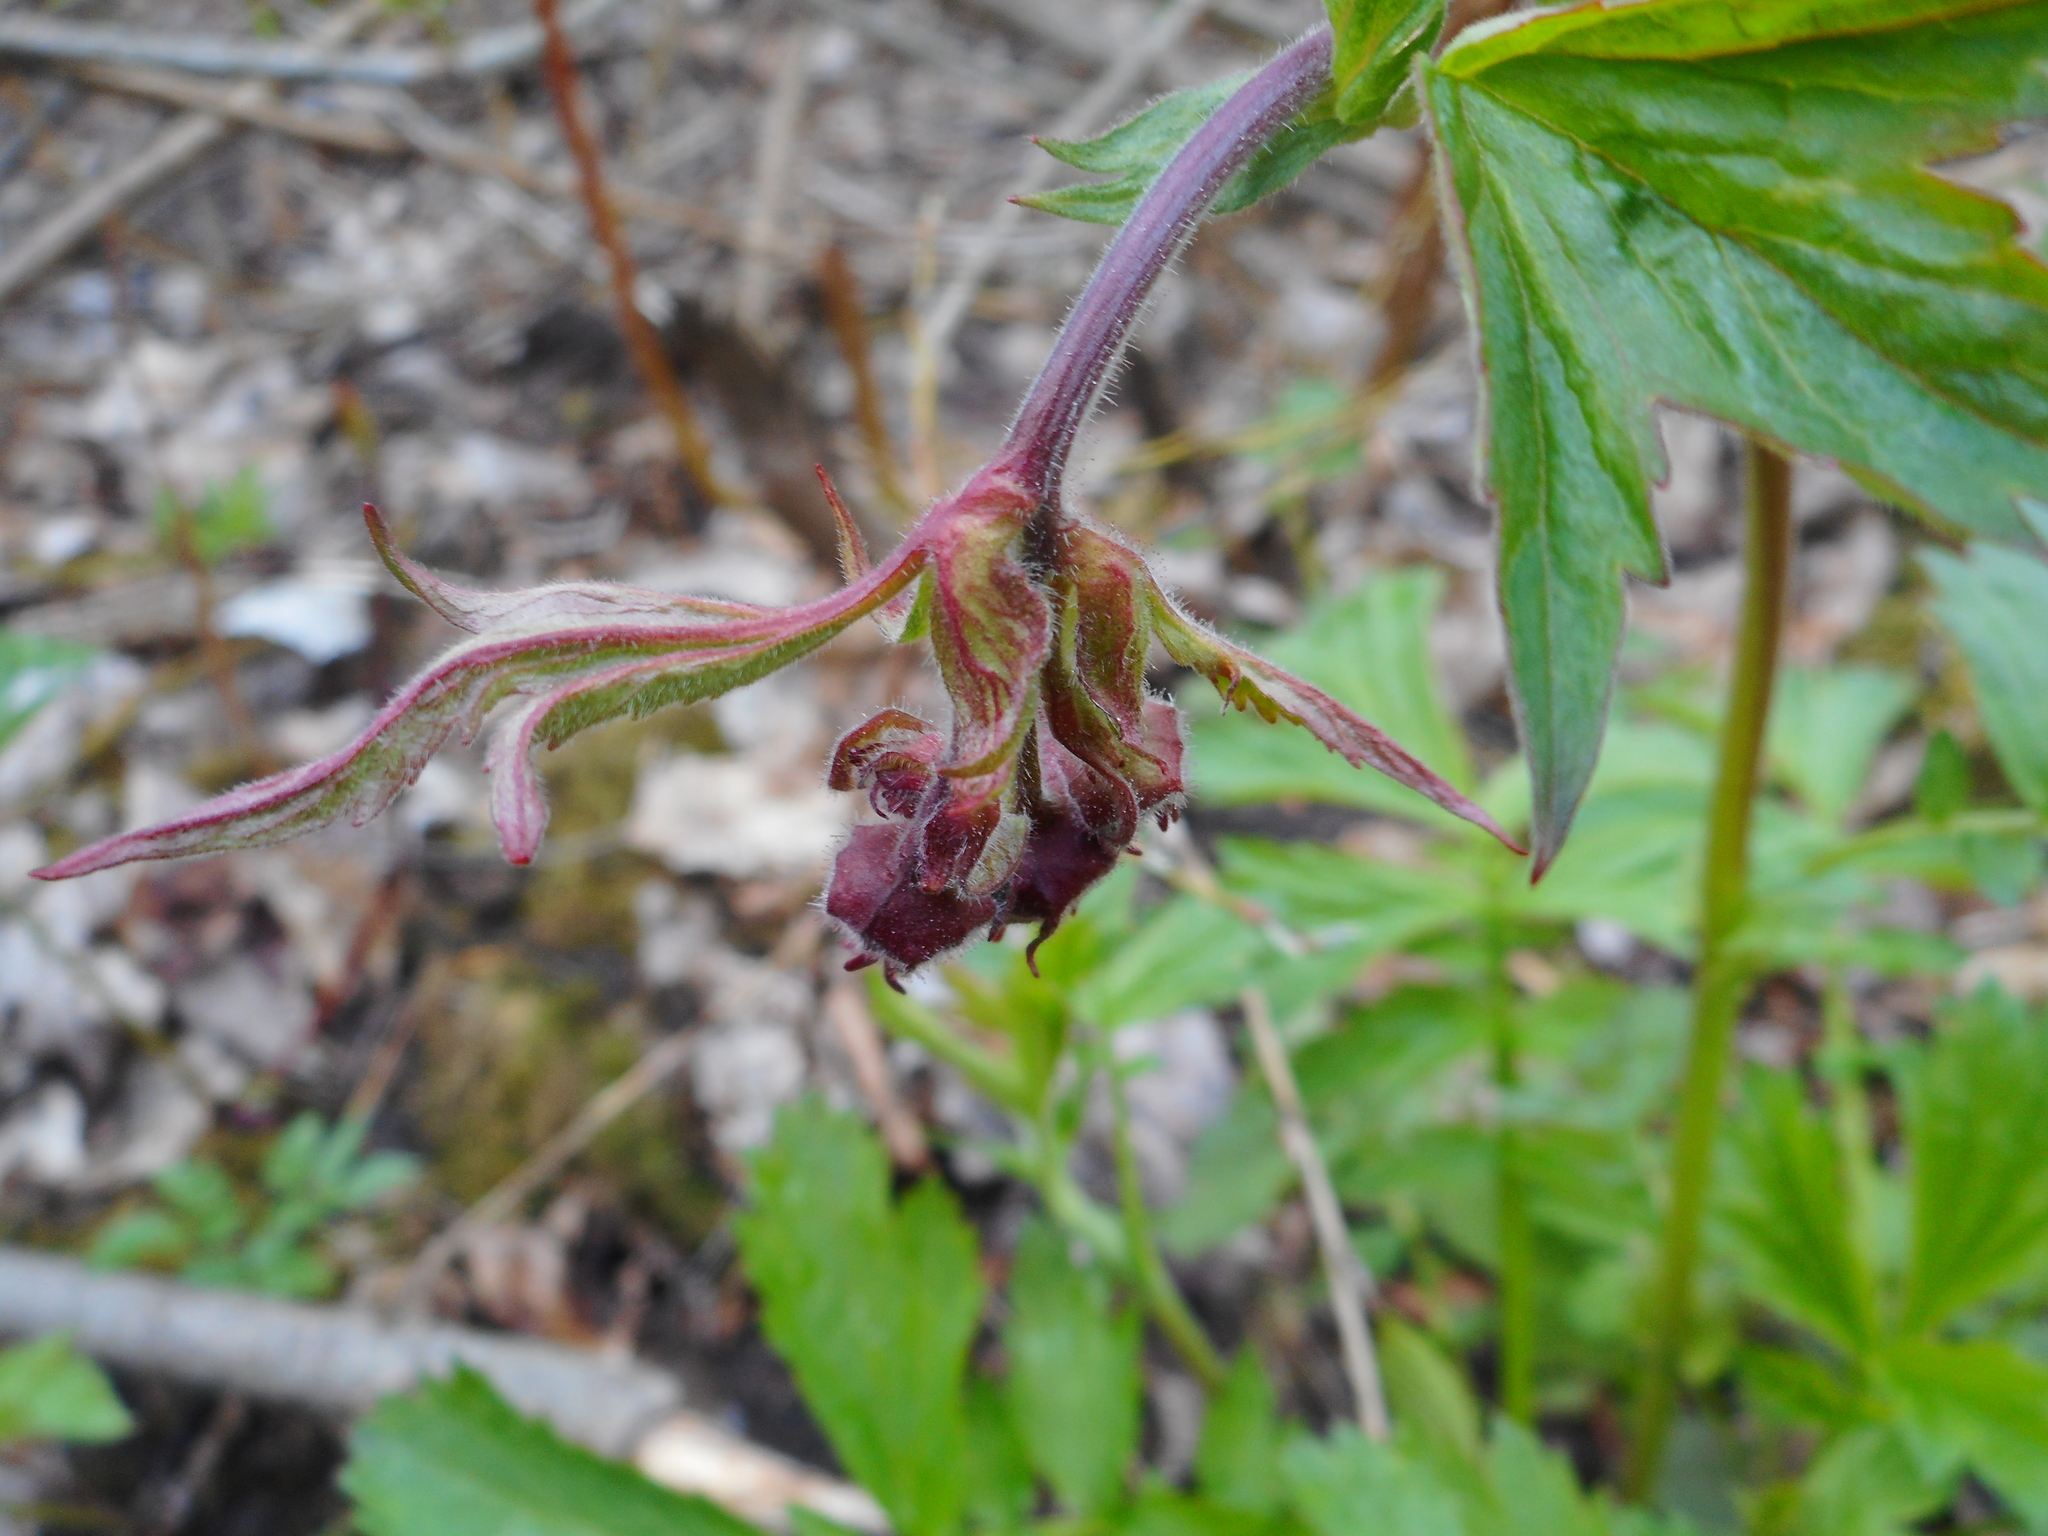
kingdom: Plantae
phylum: Tracheophyta
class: Magnoliopsida
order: Rosales
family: Rosaceae
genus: Geum
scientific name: Geum rivale
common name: Water avens
